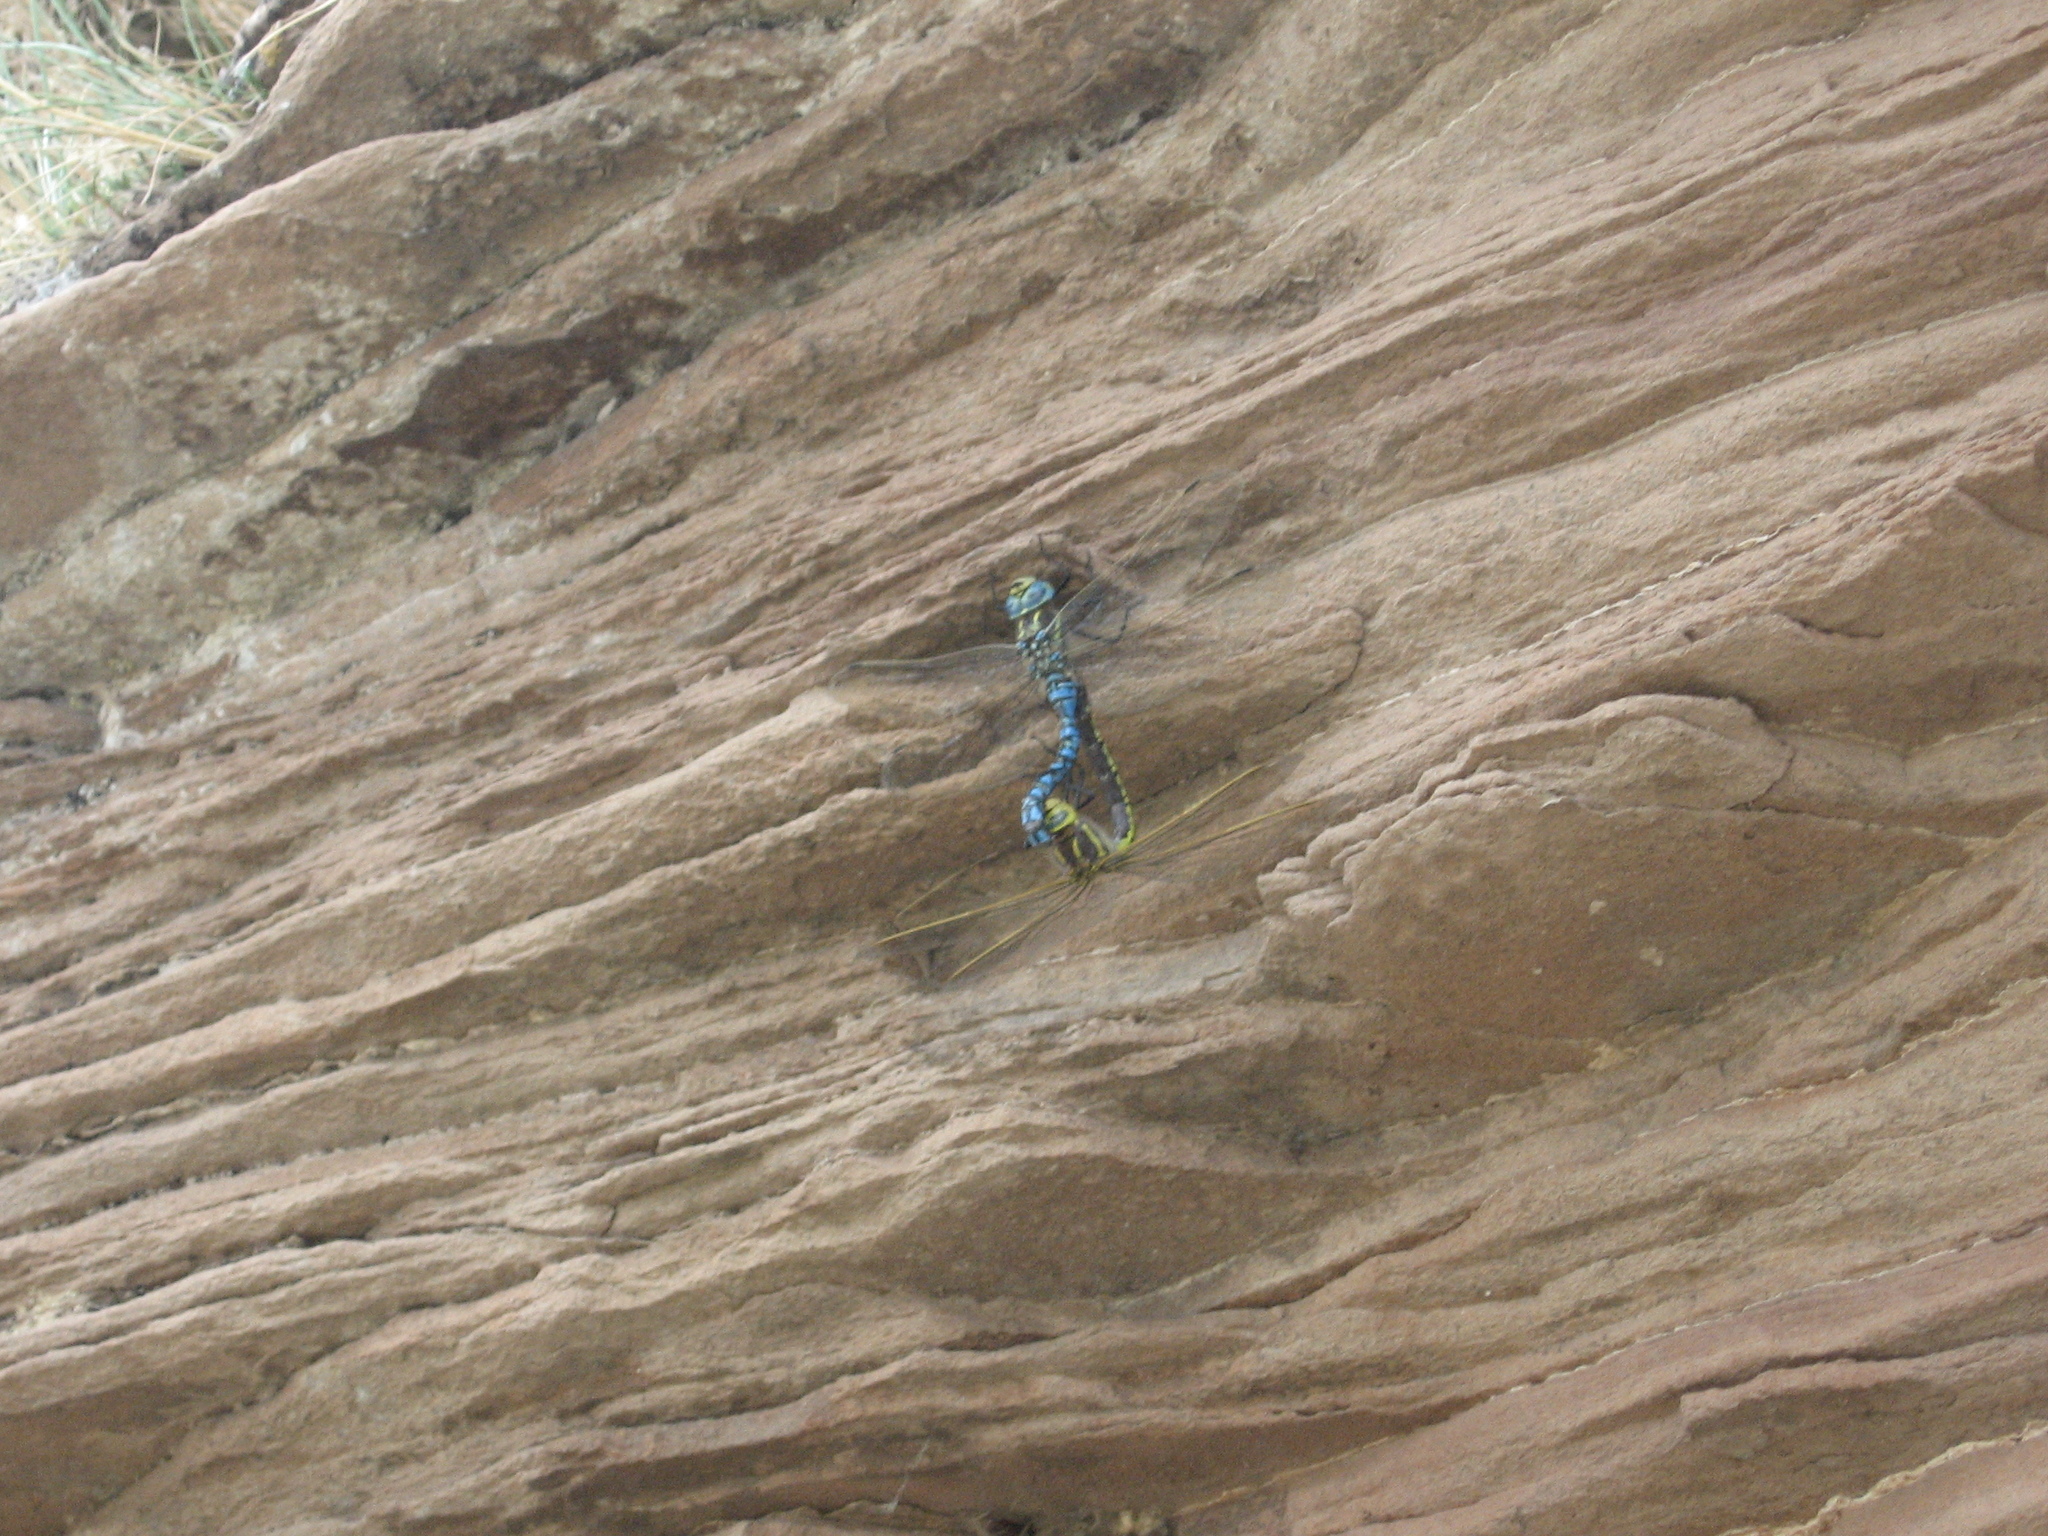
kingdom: Animalia
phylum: Arthropoda
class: Insecta
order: Odonata
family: Aeshnidae
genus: Aeshna
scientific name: Aeshna serrata
